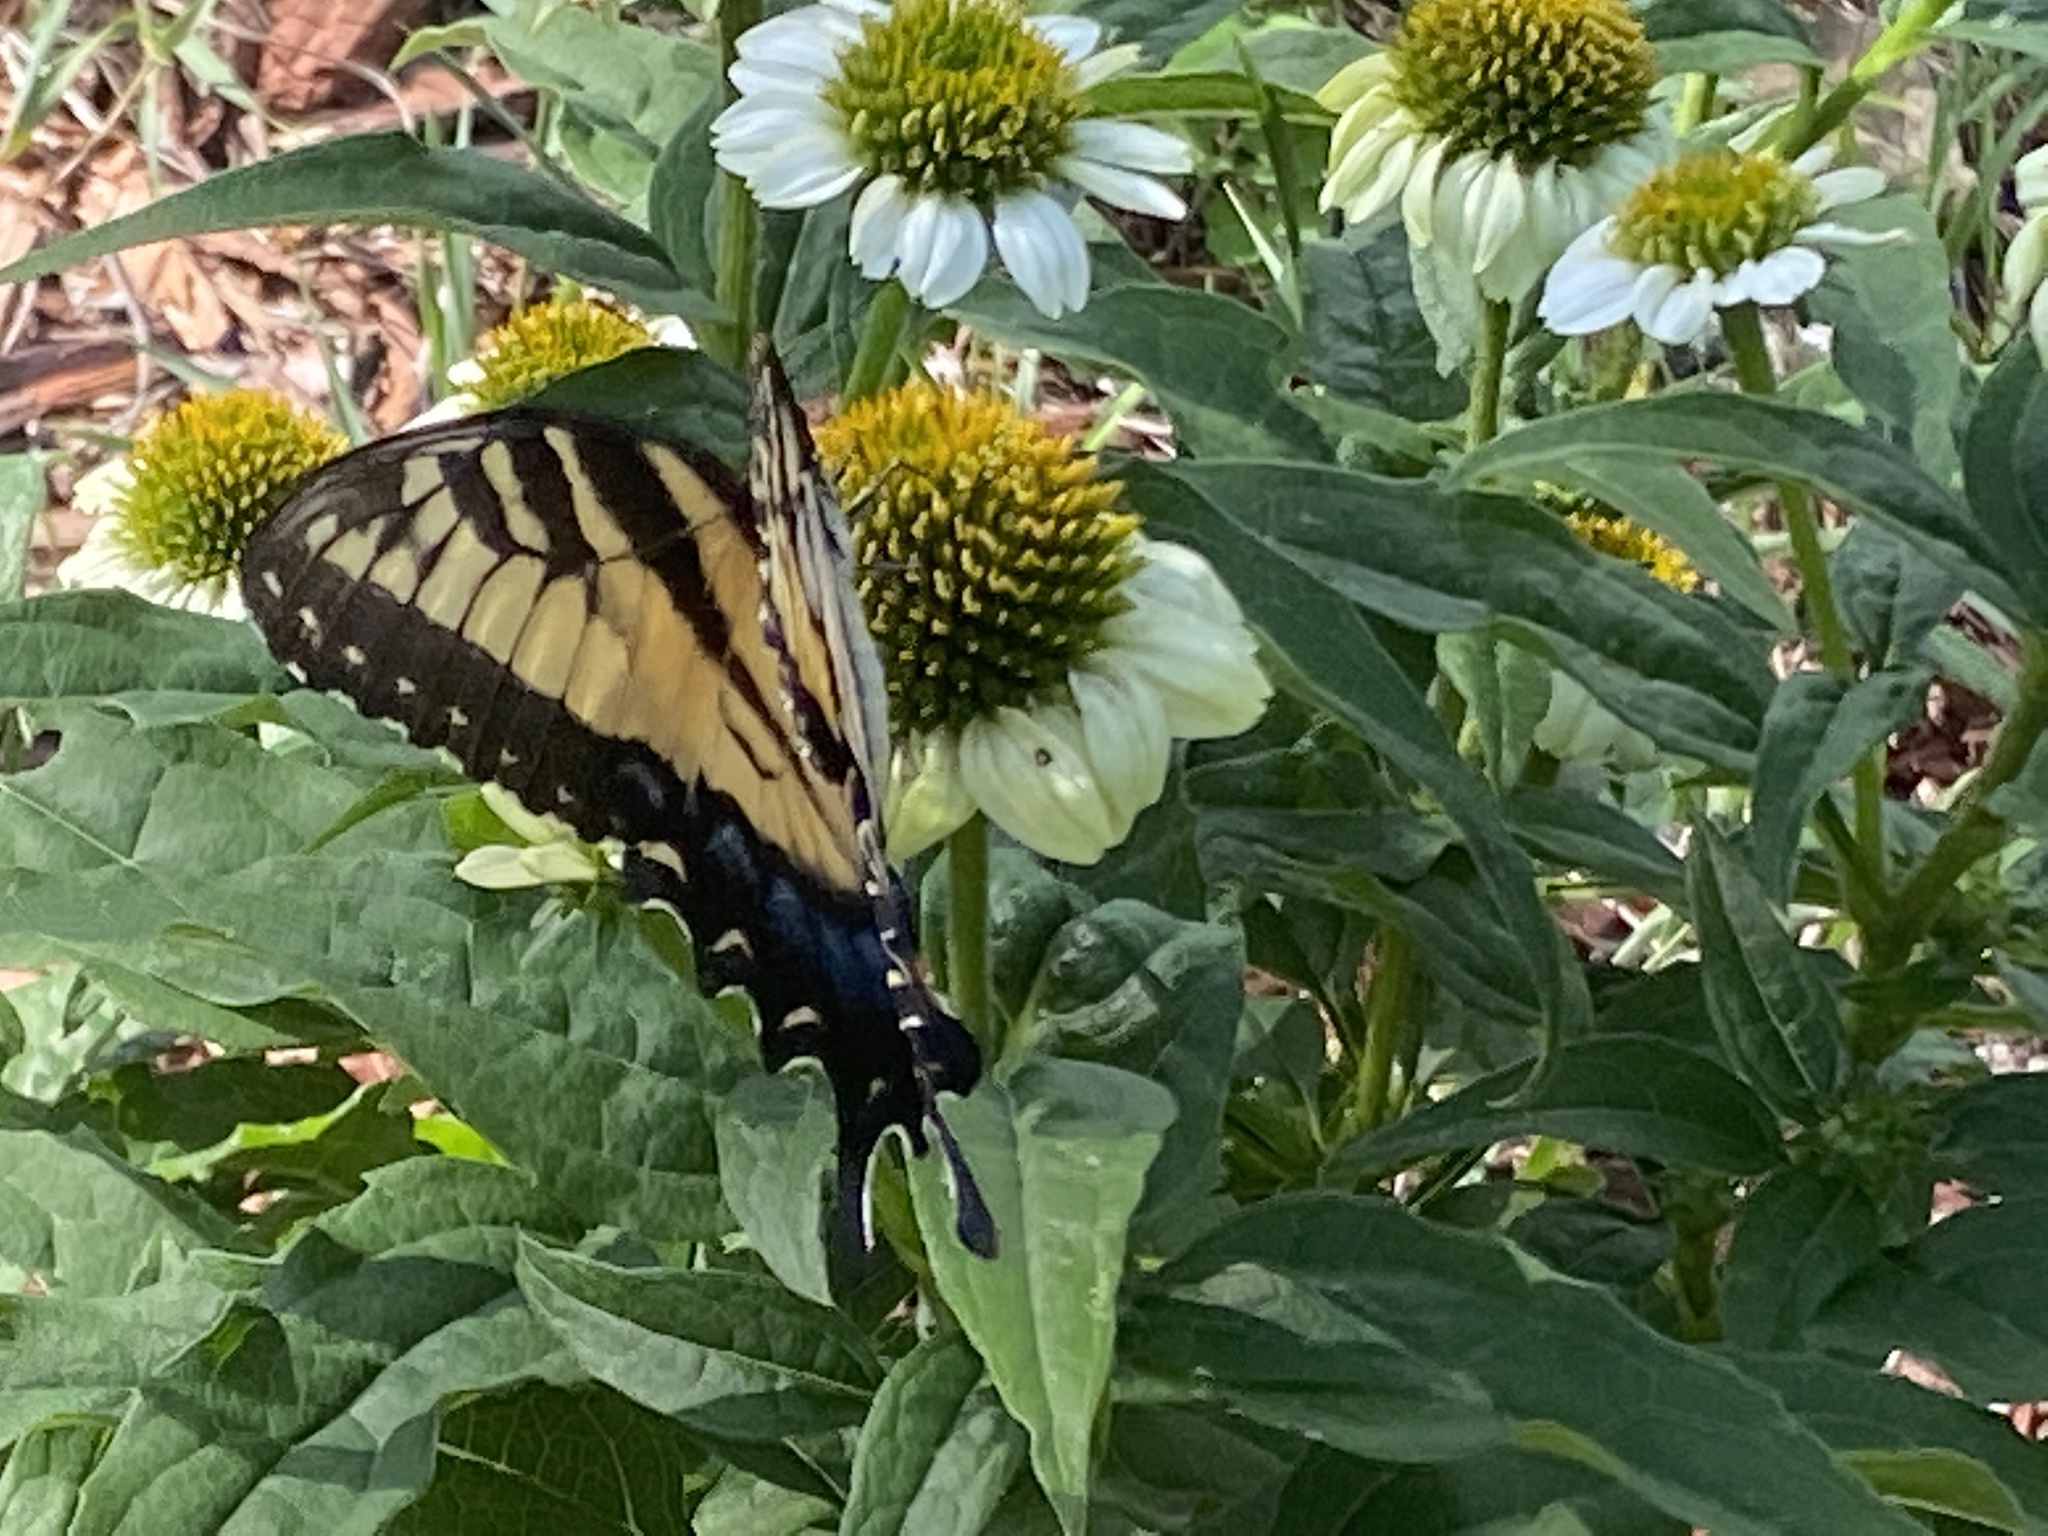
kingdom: Animalia
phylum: Arthropoda
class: Insecta
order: Lepidoptera
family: Papilionidae
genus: Papilio
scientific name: Papilio glaucus
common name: Tiger swallowtail
